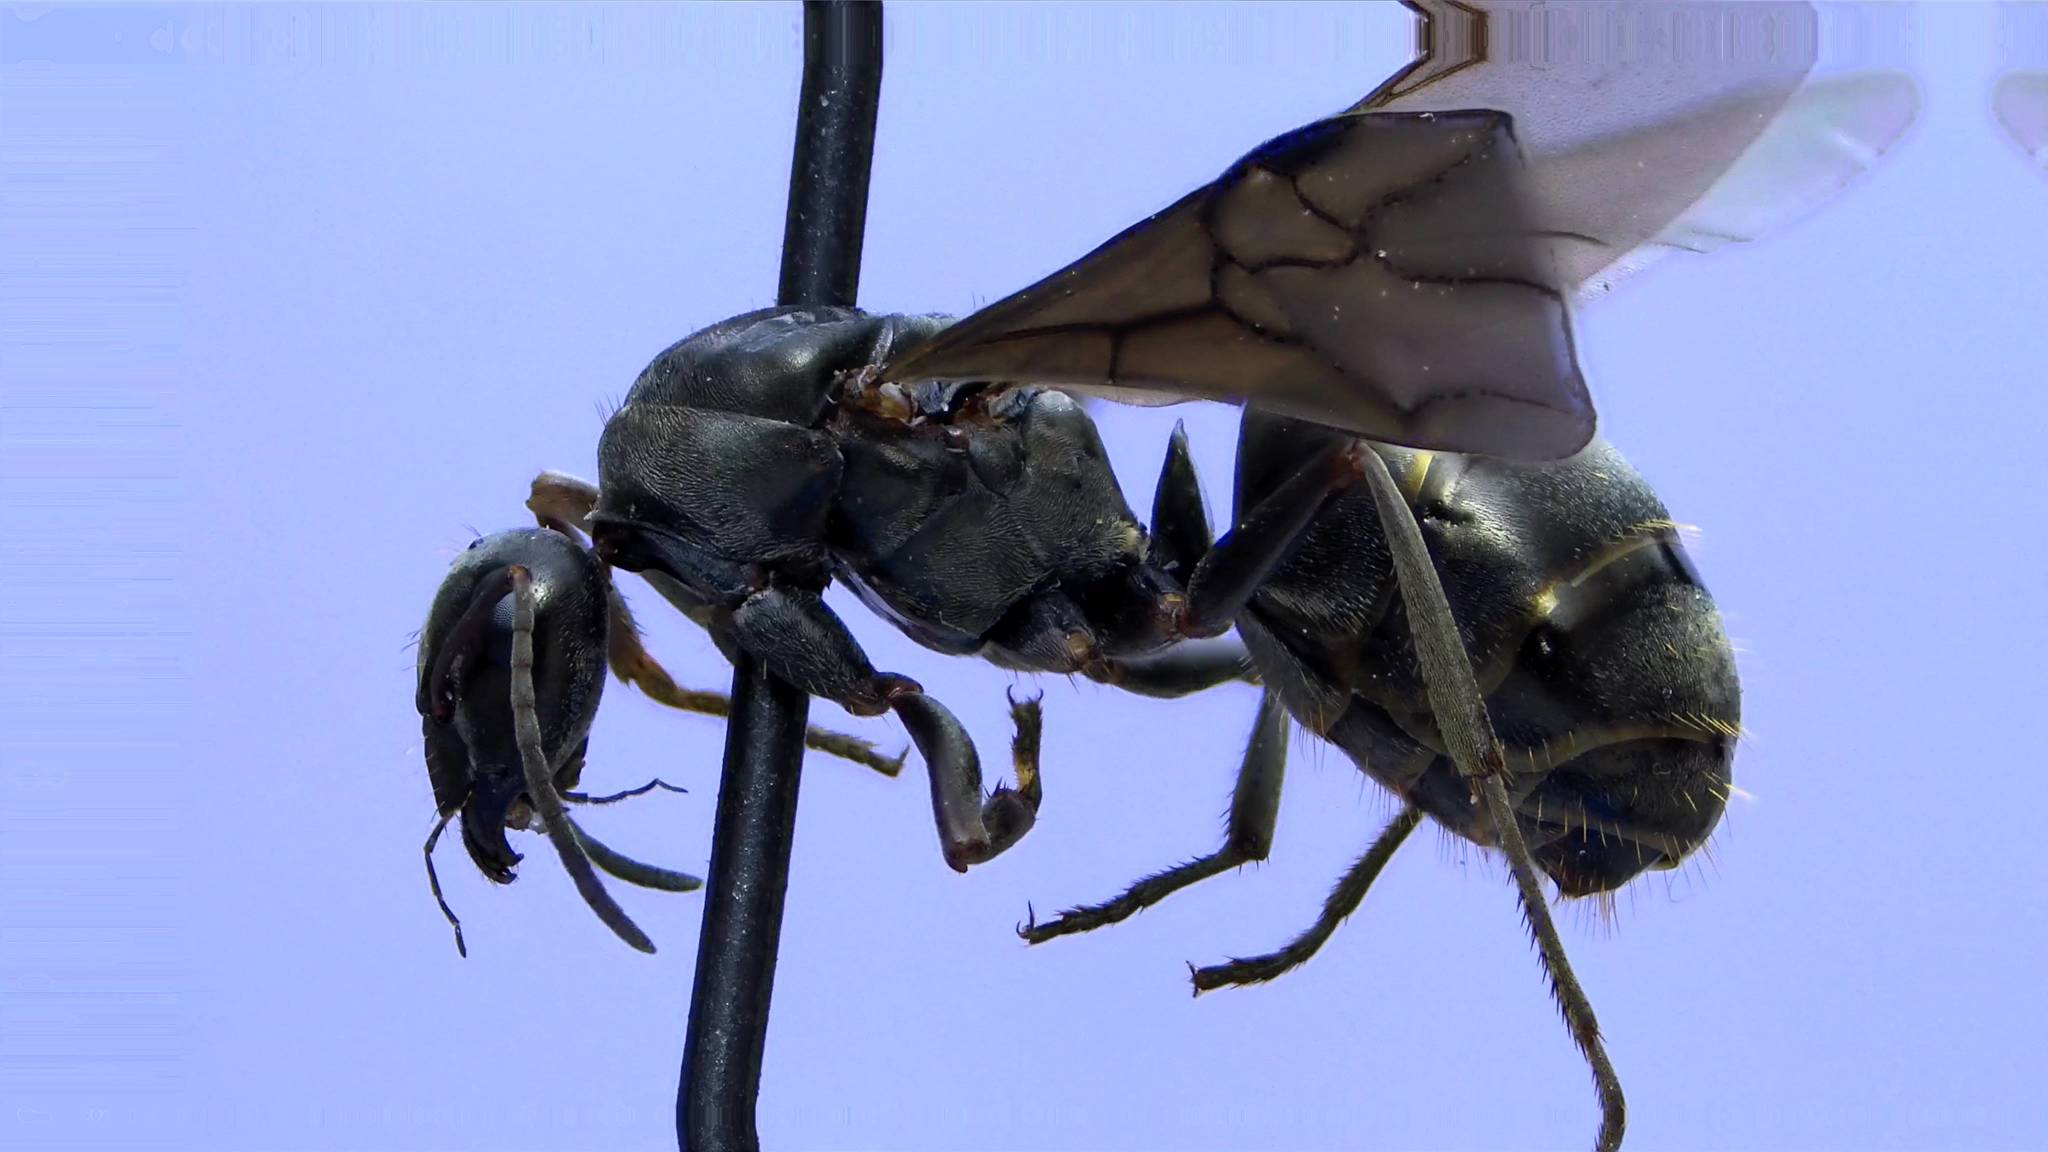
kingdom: Animalia
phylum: Arthropoda
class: Insecta
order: Hymenoptera
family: Formicidae
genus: Formica
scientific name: Formica subsericea
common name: Silky field ant
